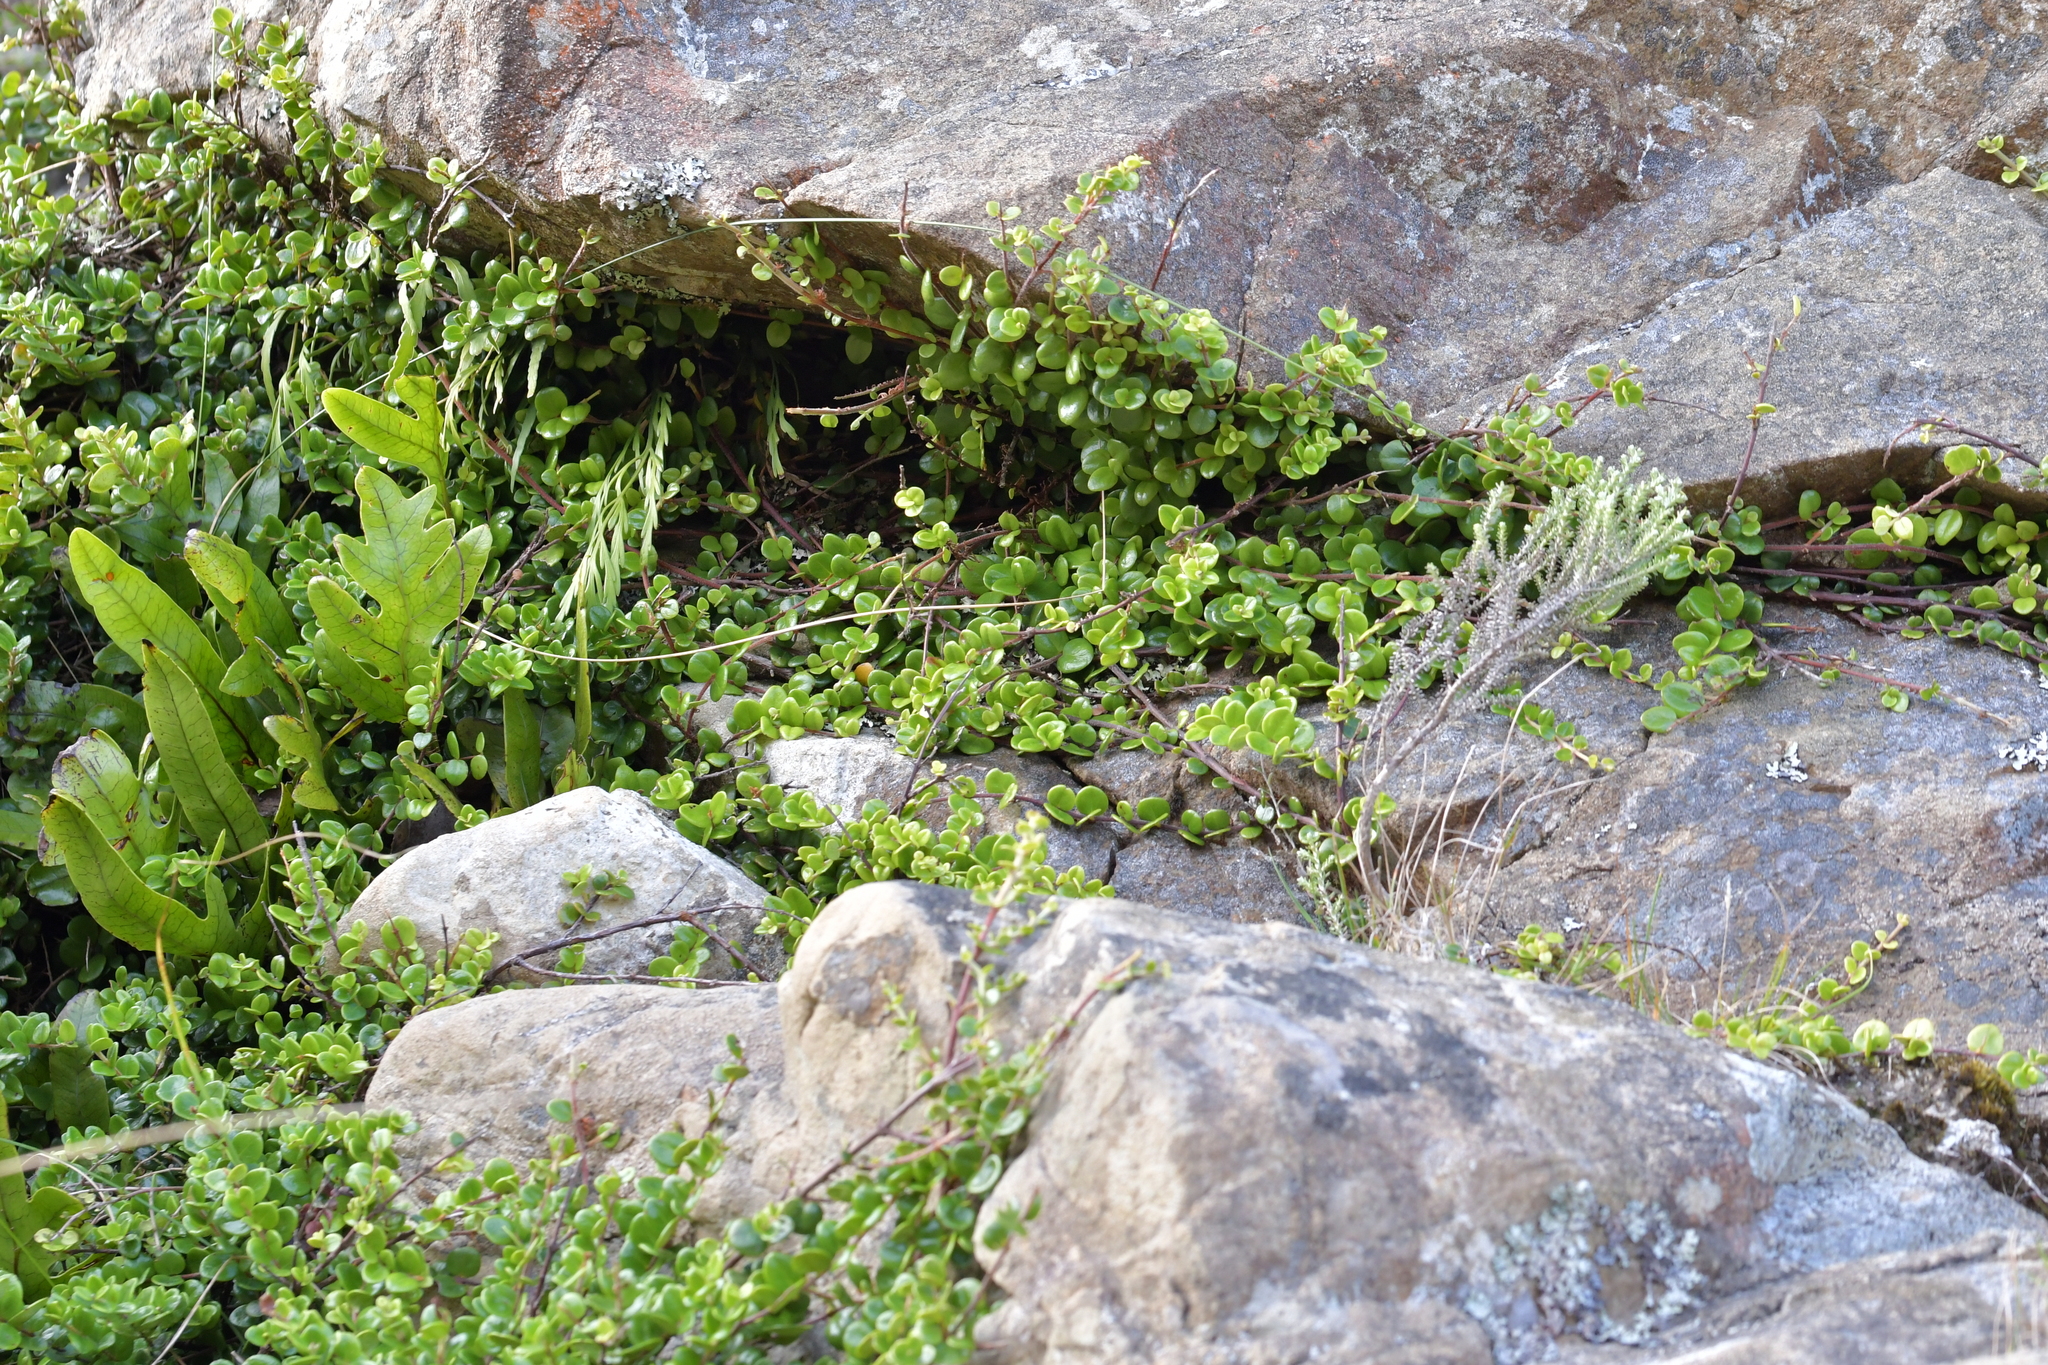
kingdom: Plantae
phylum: Tracheophyta
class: Magnoliopsida
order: Myrtales
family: Myrtaceae
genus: Metrosideros
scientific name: Metrosideros perforata
